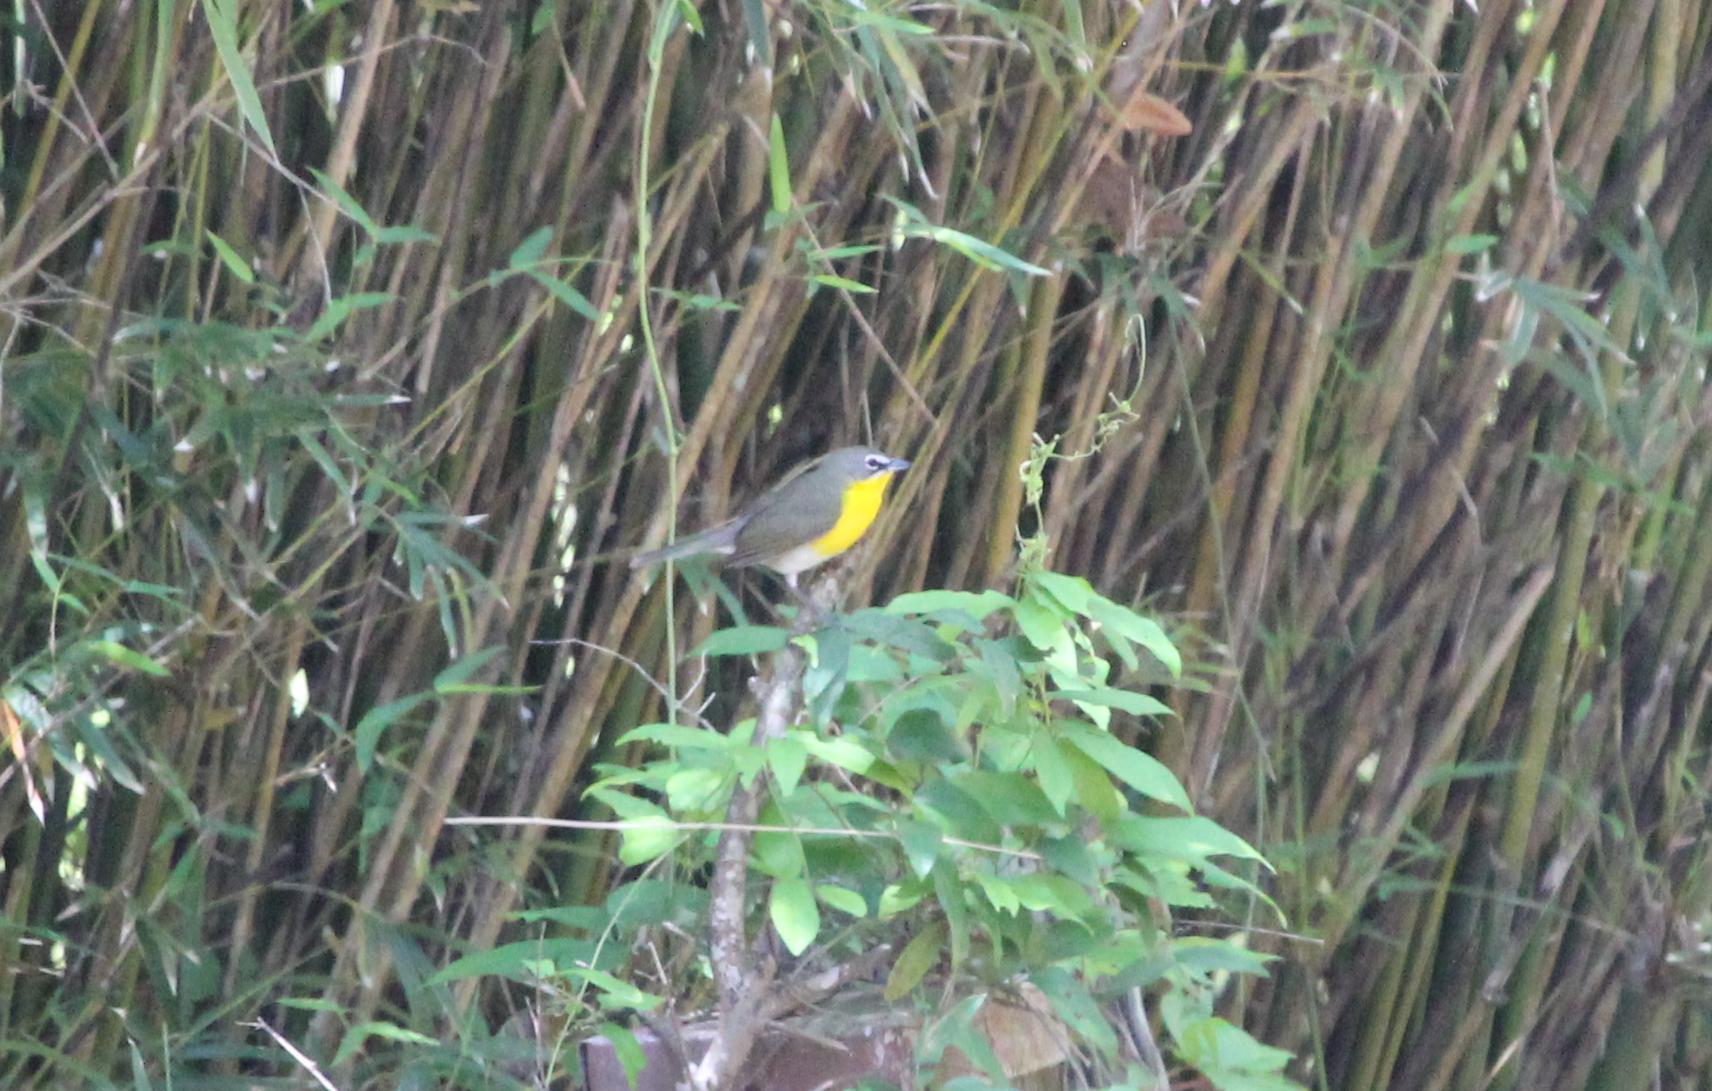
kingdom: Animalia
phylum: Chordata
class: Aves
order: Passeriformes
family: Parulidae
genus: Icteria
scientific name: Icteria virens
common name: Yellow-breasted chat
